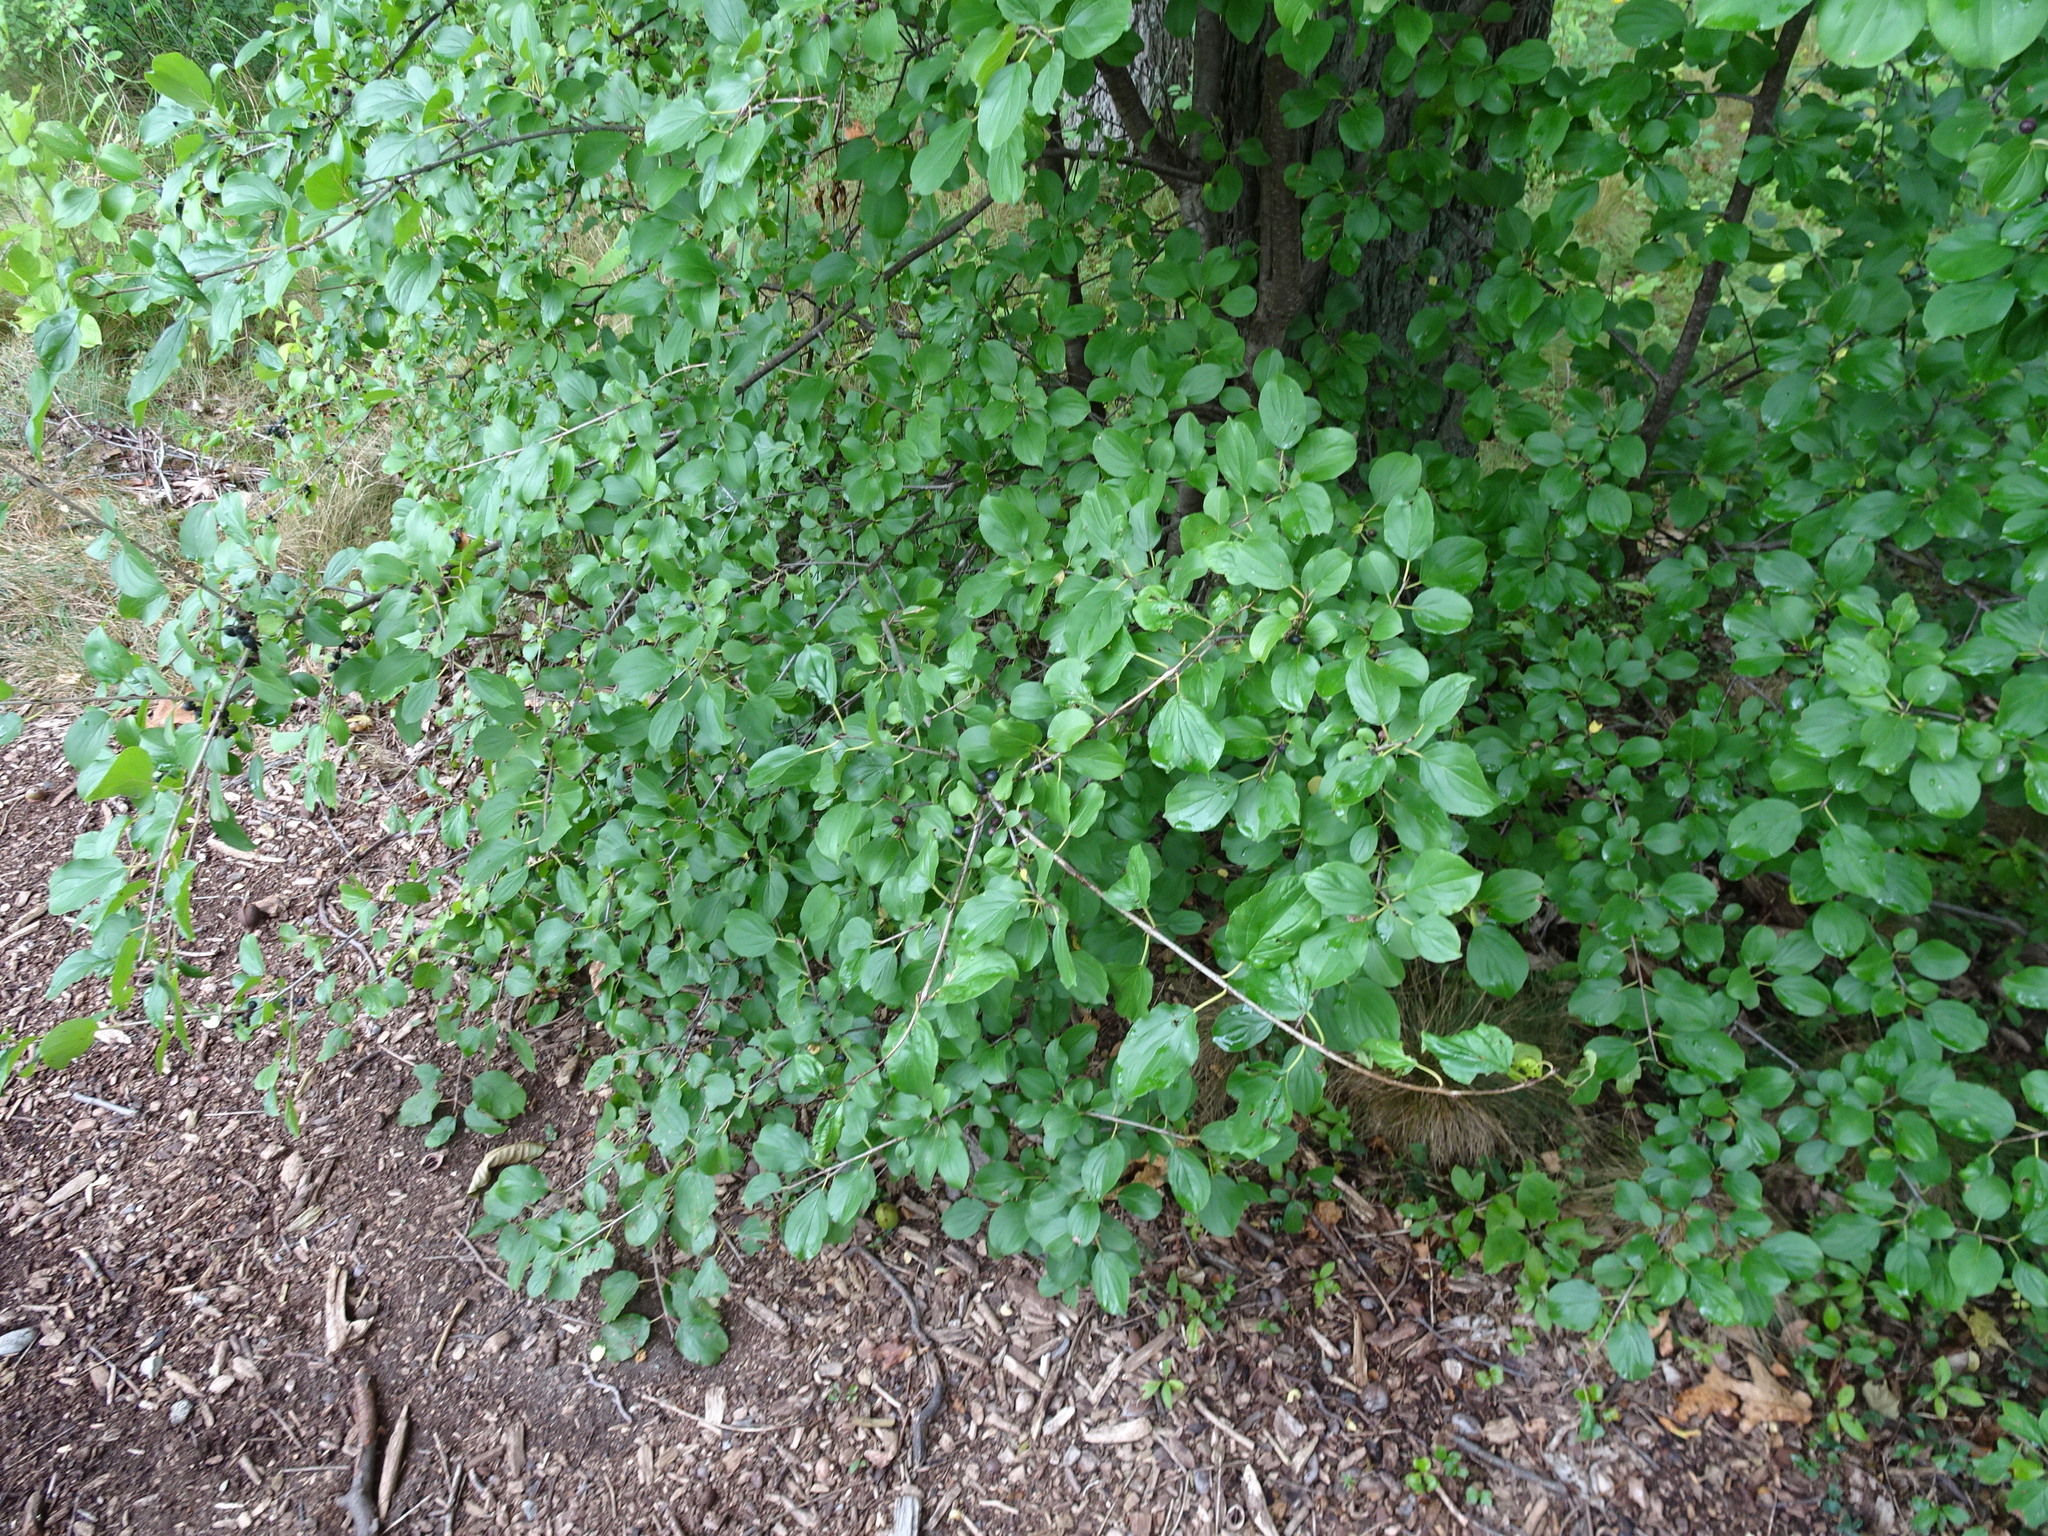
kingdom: Plantae
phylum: Tracheophyta
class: Magnoliopsida
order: Rosales
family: Rhamnaceae
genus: Rhamnus
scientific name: Rhamnus cathartica
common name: Common buckthorn
